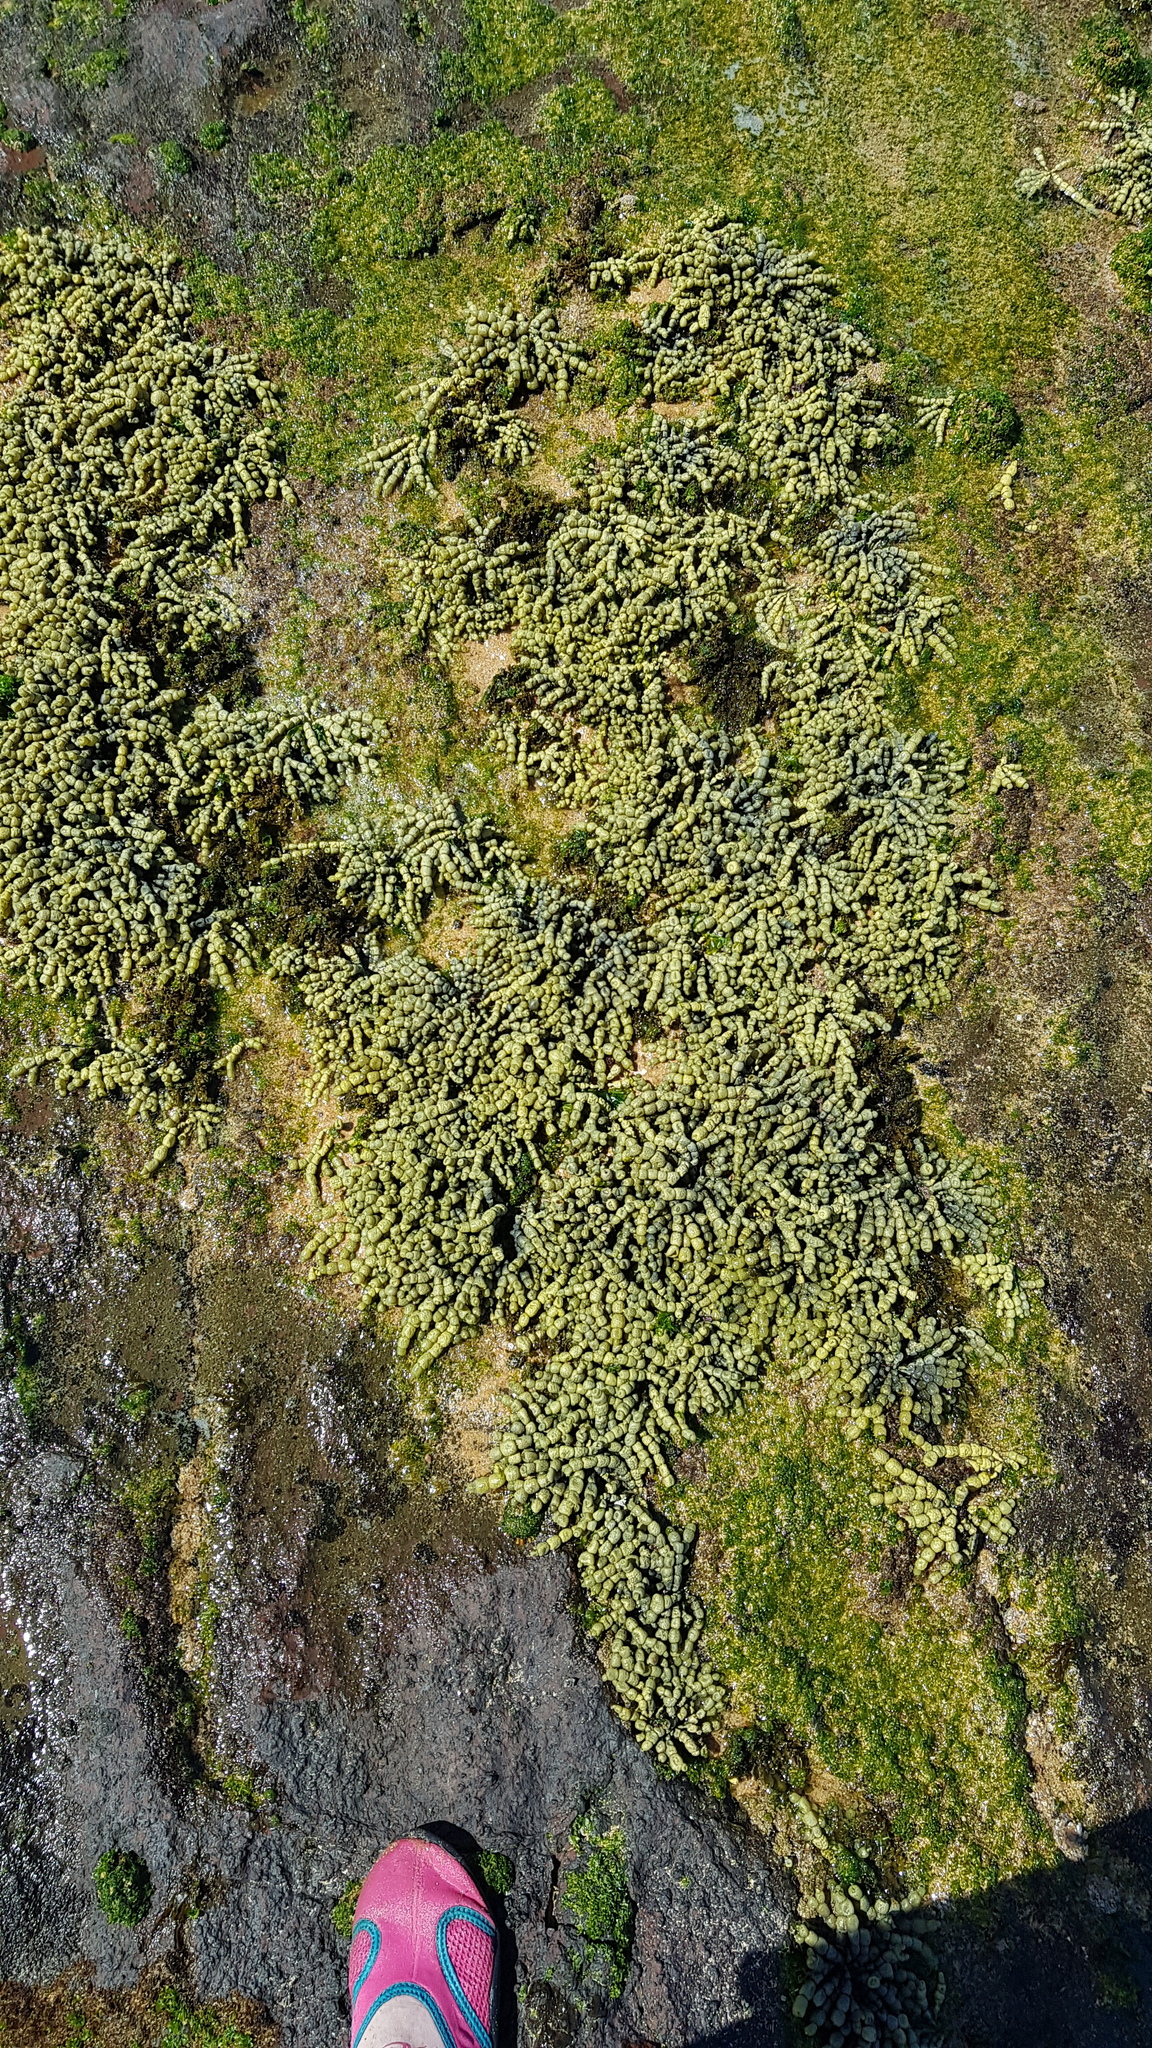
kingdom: Chromista
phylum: Ochrophyta
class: Phaeophyceae
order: Fucales
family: Hormosiraceae
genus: Hormosira
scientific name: Hormosira banksii
